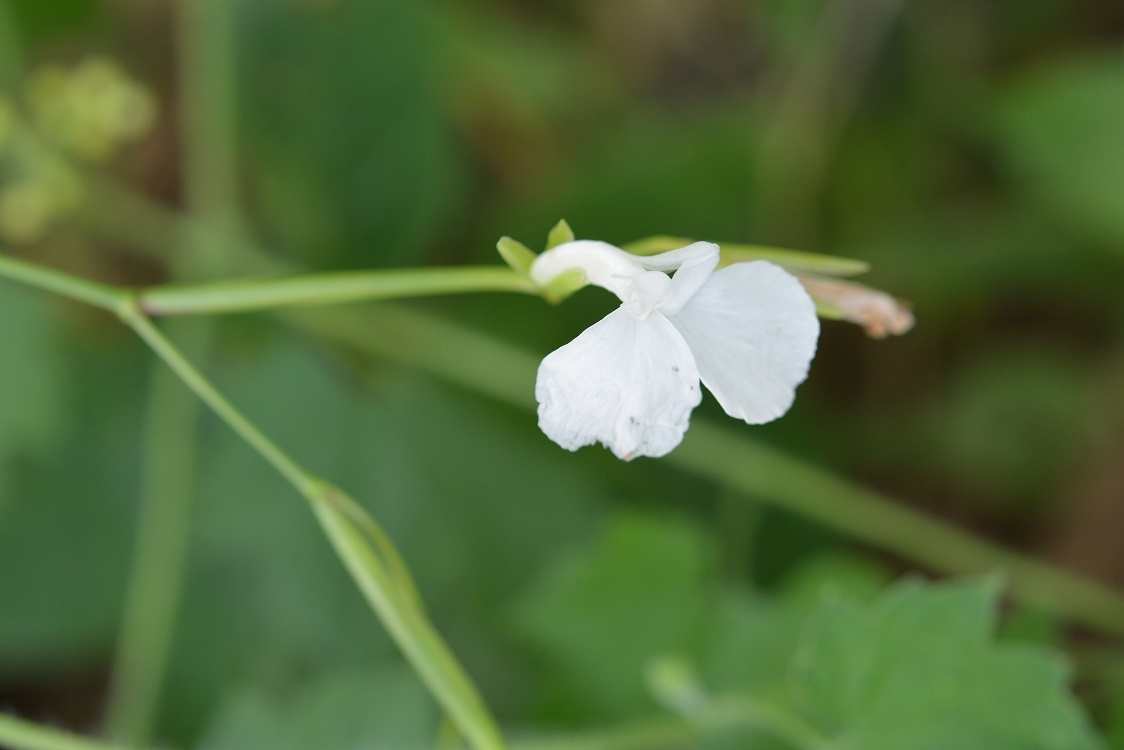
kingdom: Plantae
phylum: Tracheophyta
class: Liliopsida
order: Zingiberales
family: Marantaceae
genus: Maranta
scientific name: Maranta arundinacea
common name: Arrowroot
